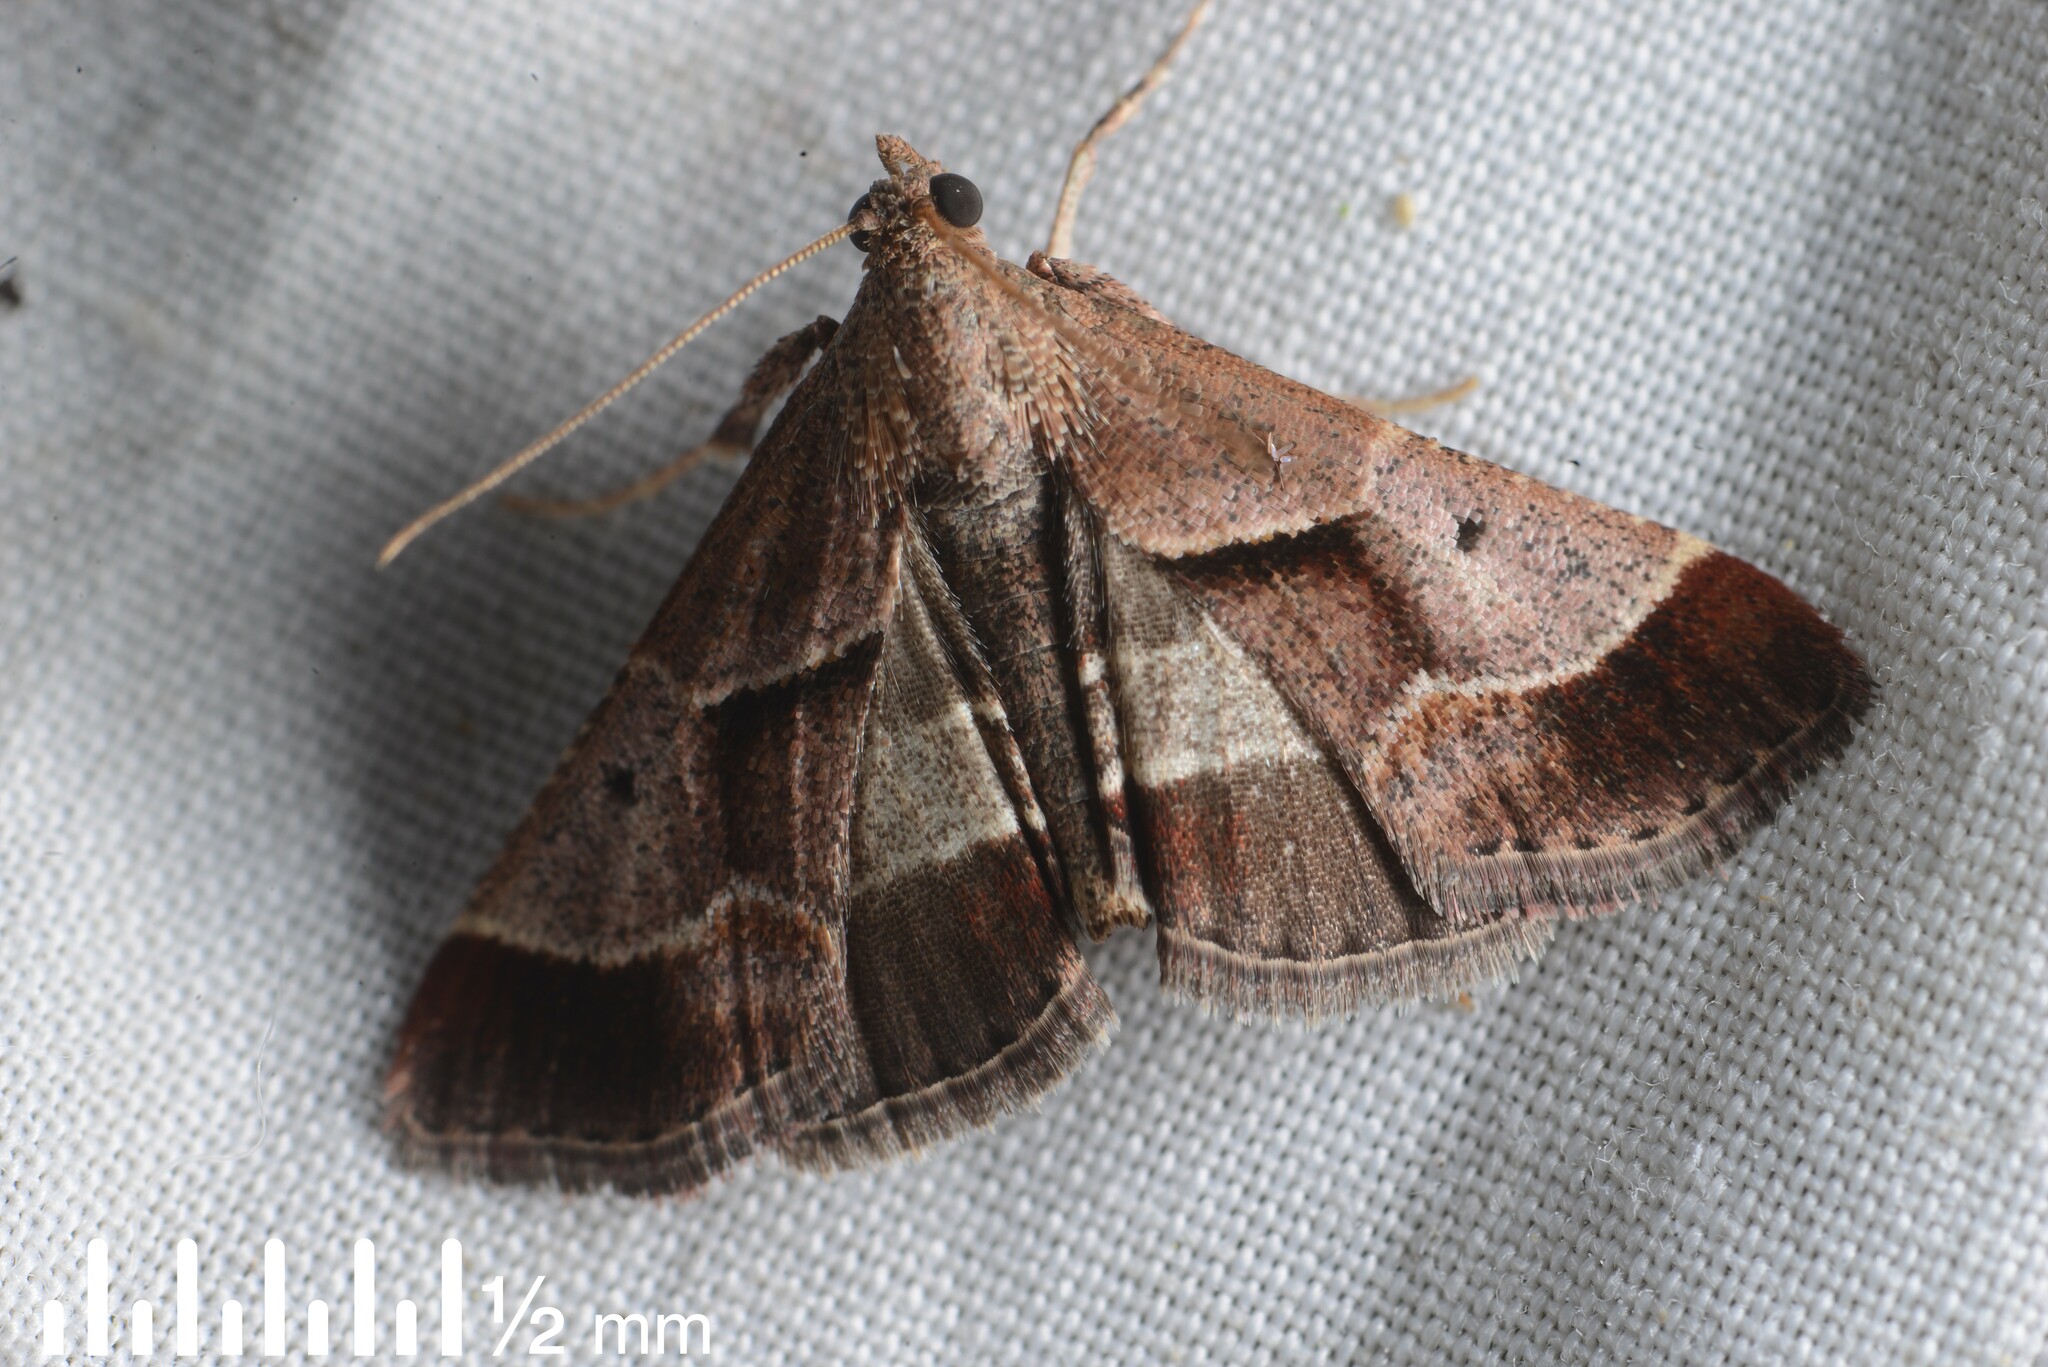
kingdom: Animalia
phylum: Arthropoda
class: Insecta
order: Lepidoptera
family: Pyralidae
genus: Gauna
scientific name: Gauna aegusalis
